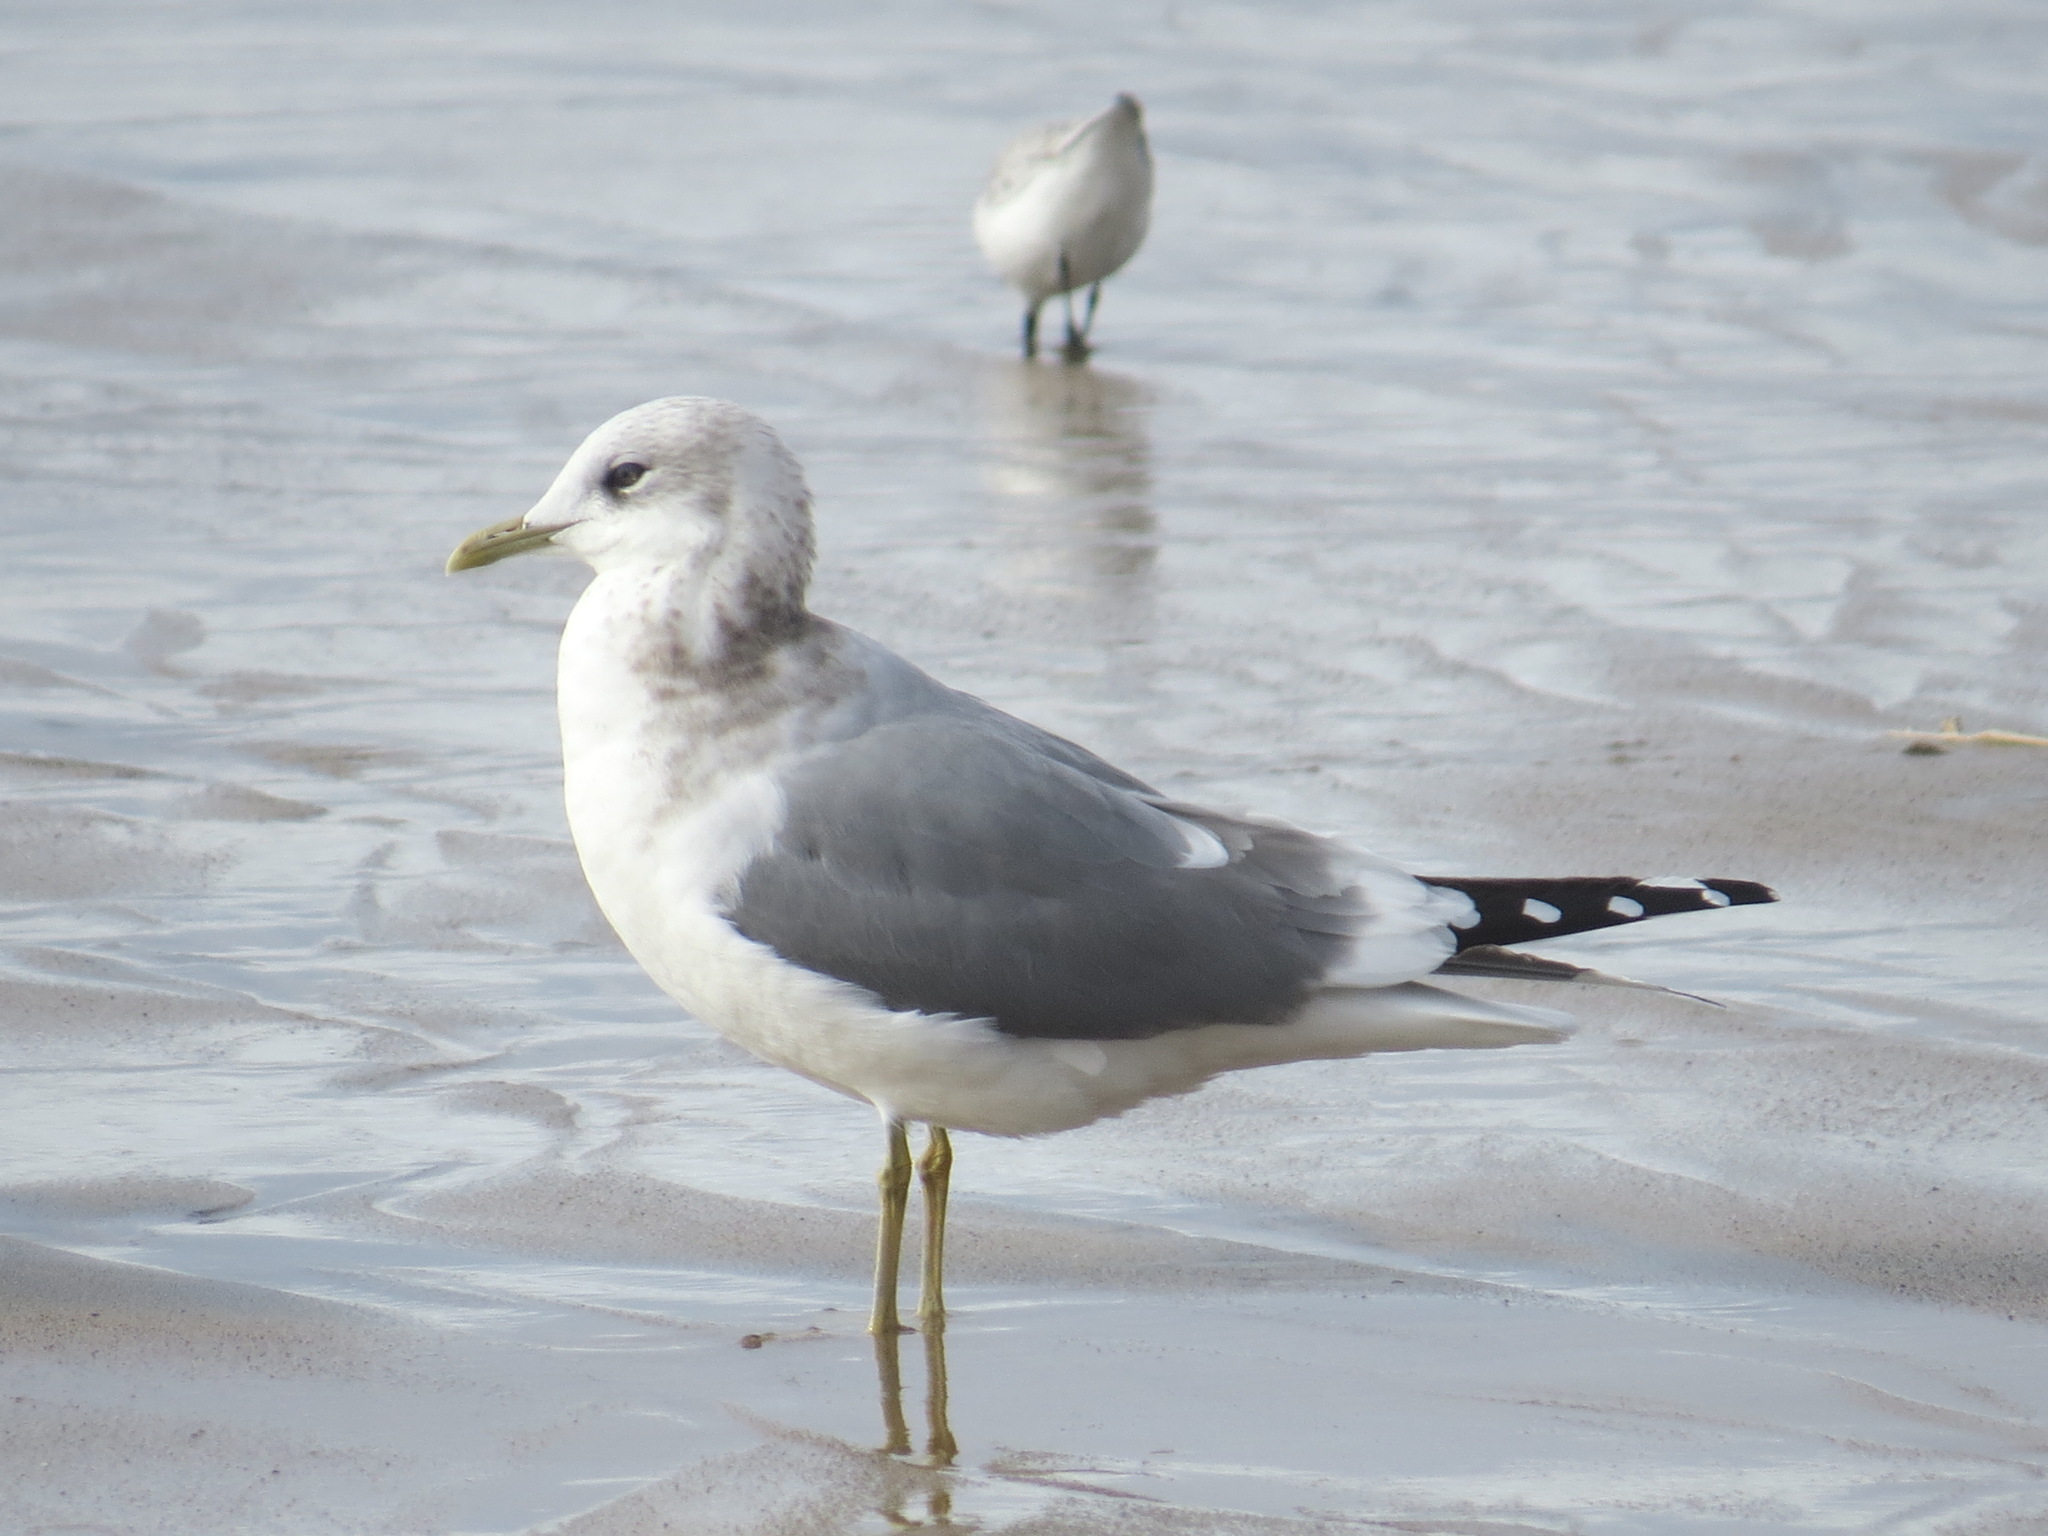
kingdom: Animalia
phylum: Chordata
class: Aves
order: Charadriiformes
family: Laridae
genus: Larus
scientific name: Larus brachyrhynchus
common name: Short-billed gull
